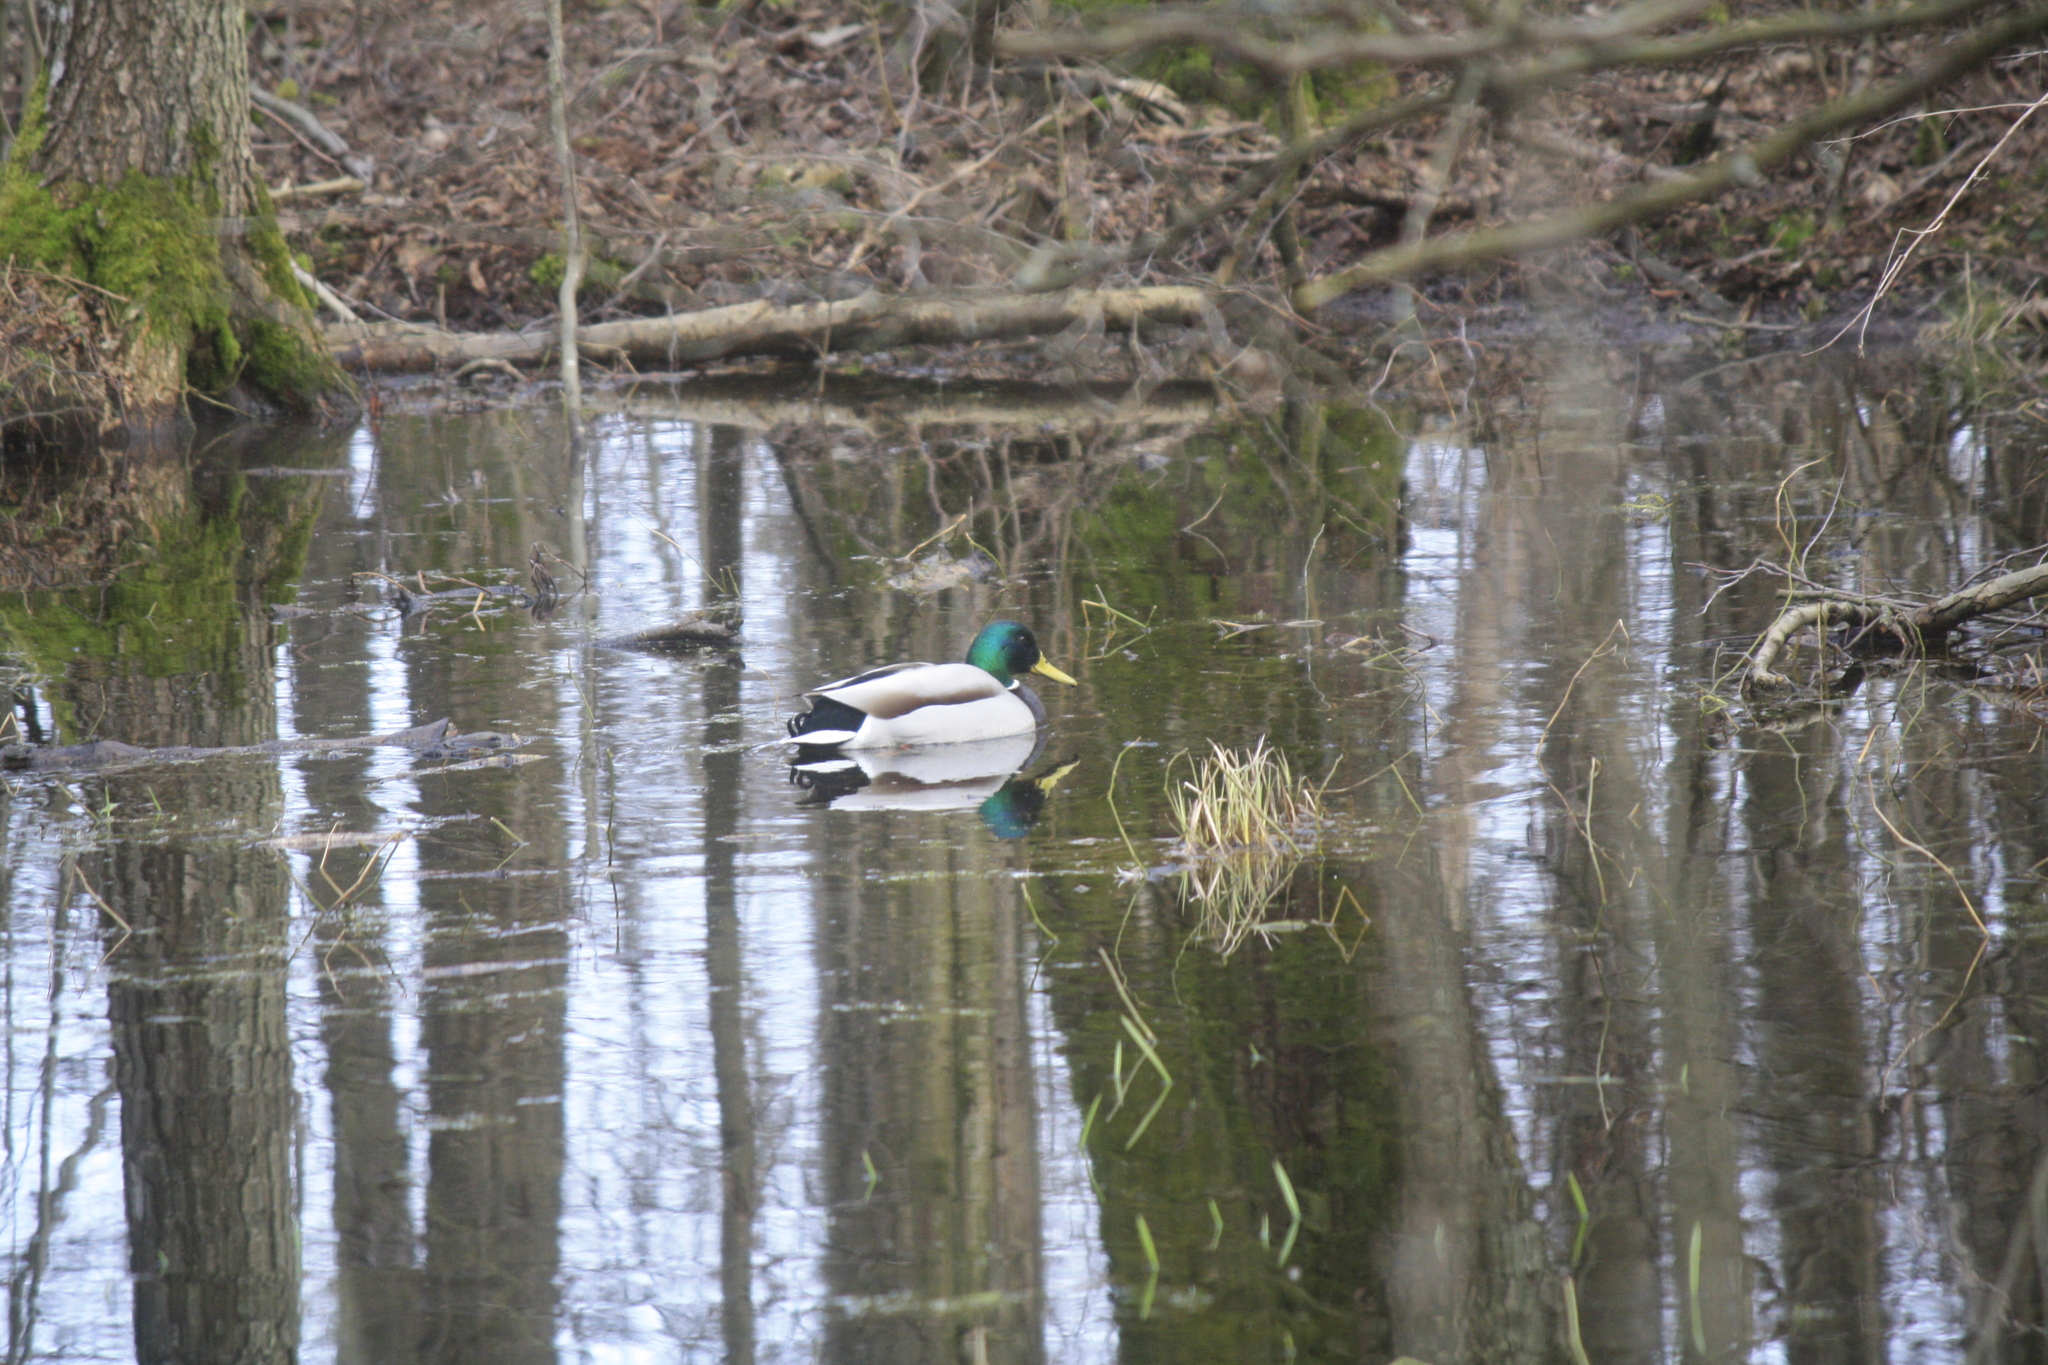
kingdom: Animalia
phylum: Chordata
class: Aves
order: Anseriformes
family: Anatidae
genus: Anas
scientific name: Anas platyrhynchos
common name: Mallard
